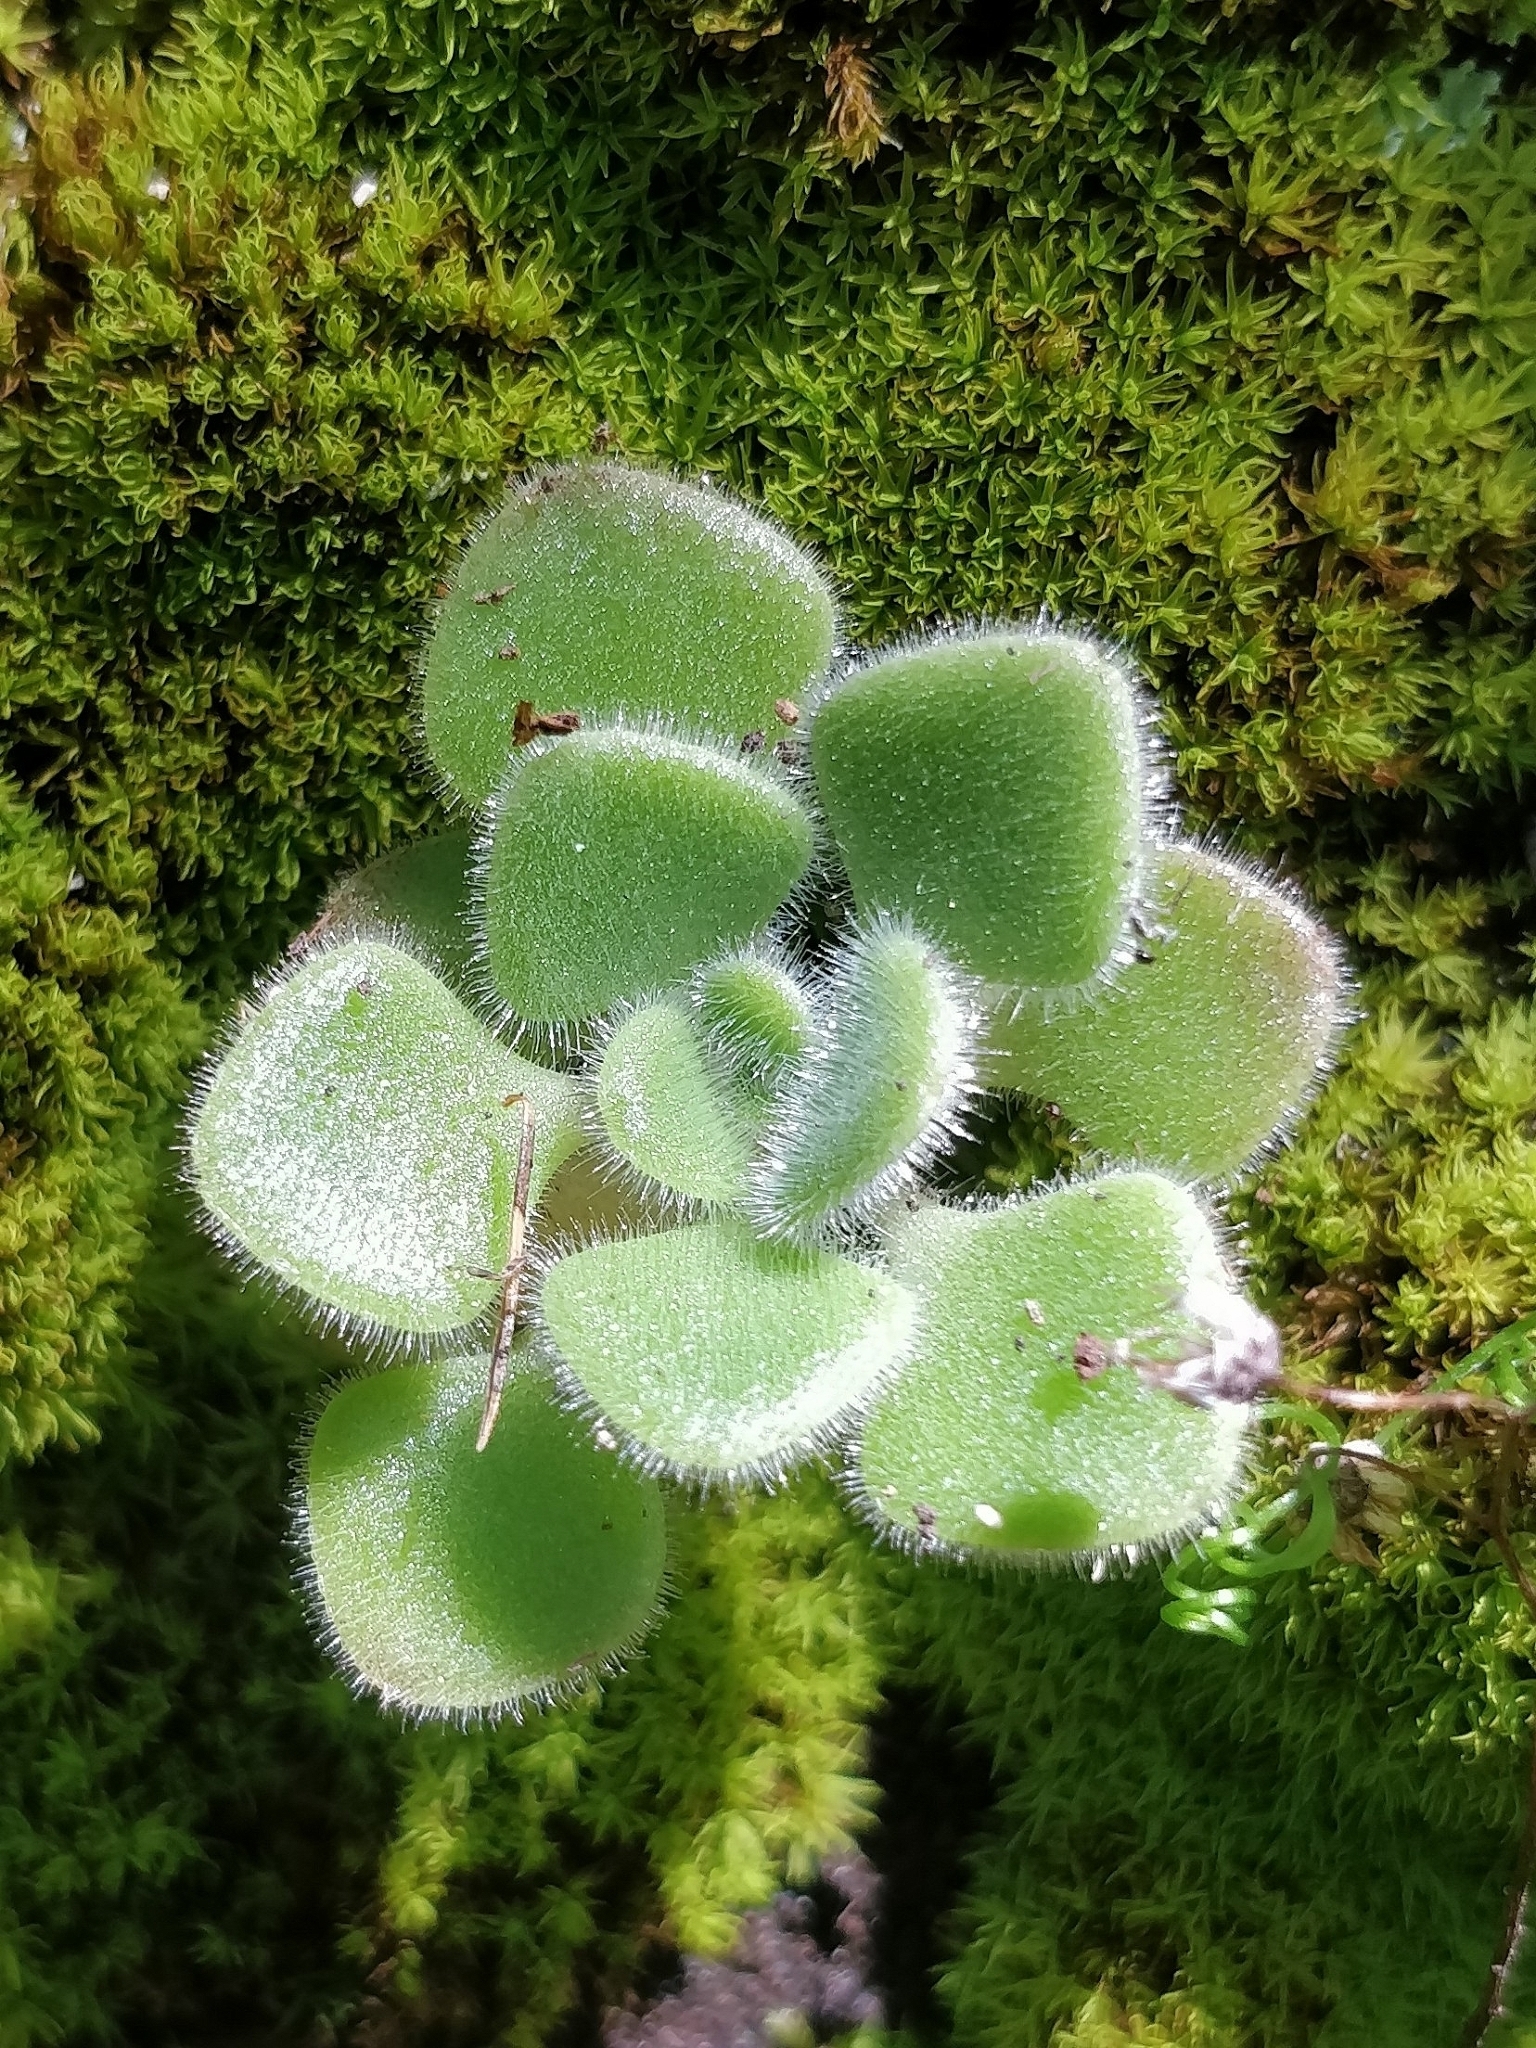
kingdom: Plantae
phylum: Tracheophyta
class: Magnoliopsida
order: Saxifragales
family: Crassulaceae
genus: Aichryson
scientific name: Aichryson villosum
